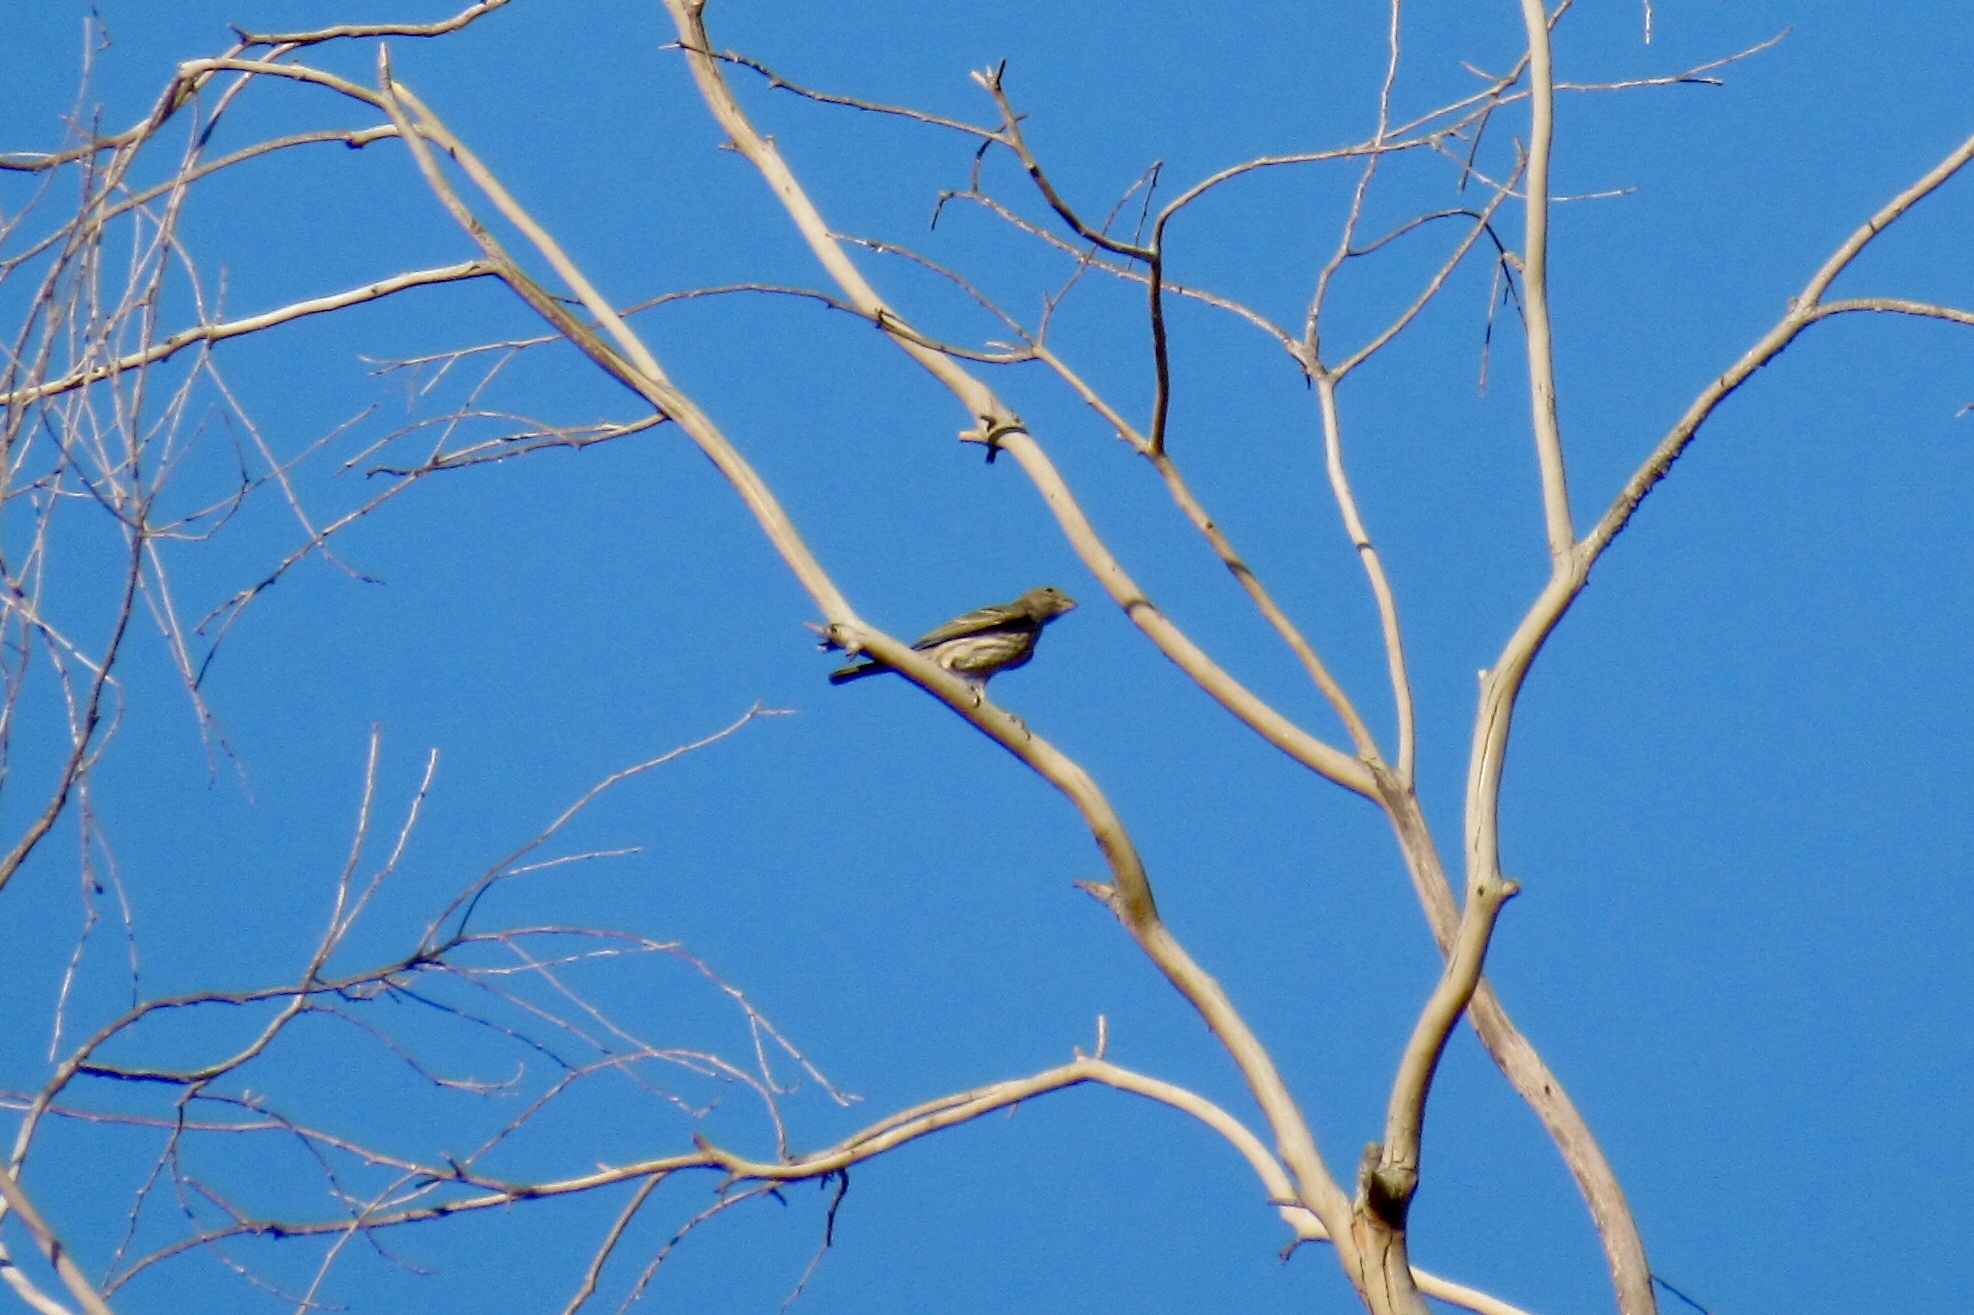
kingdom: Animalia
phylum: Chordata
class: Aves
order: Passeriformes
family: Fringillidae
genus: Haemorhous
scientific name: Haemorhous mexicanus
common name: House finch
